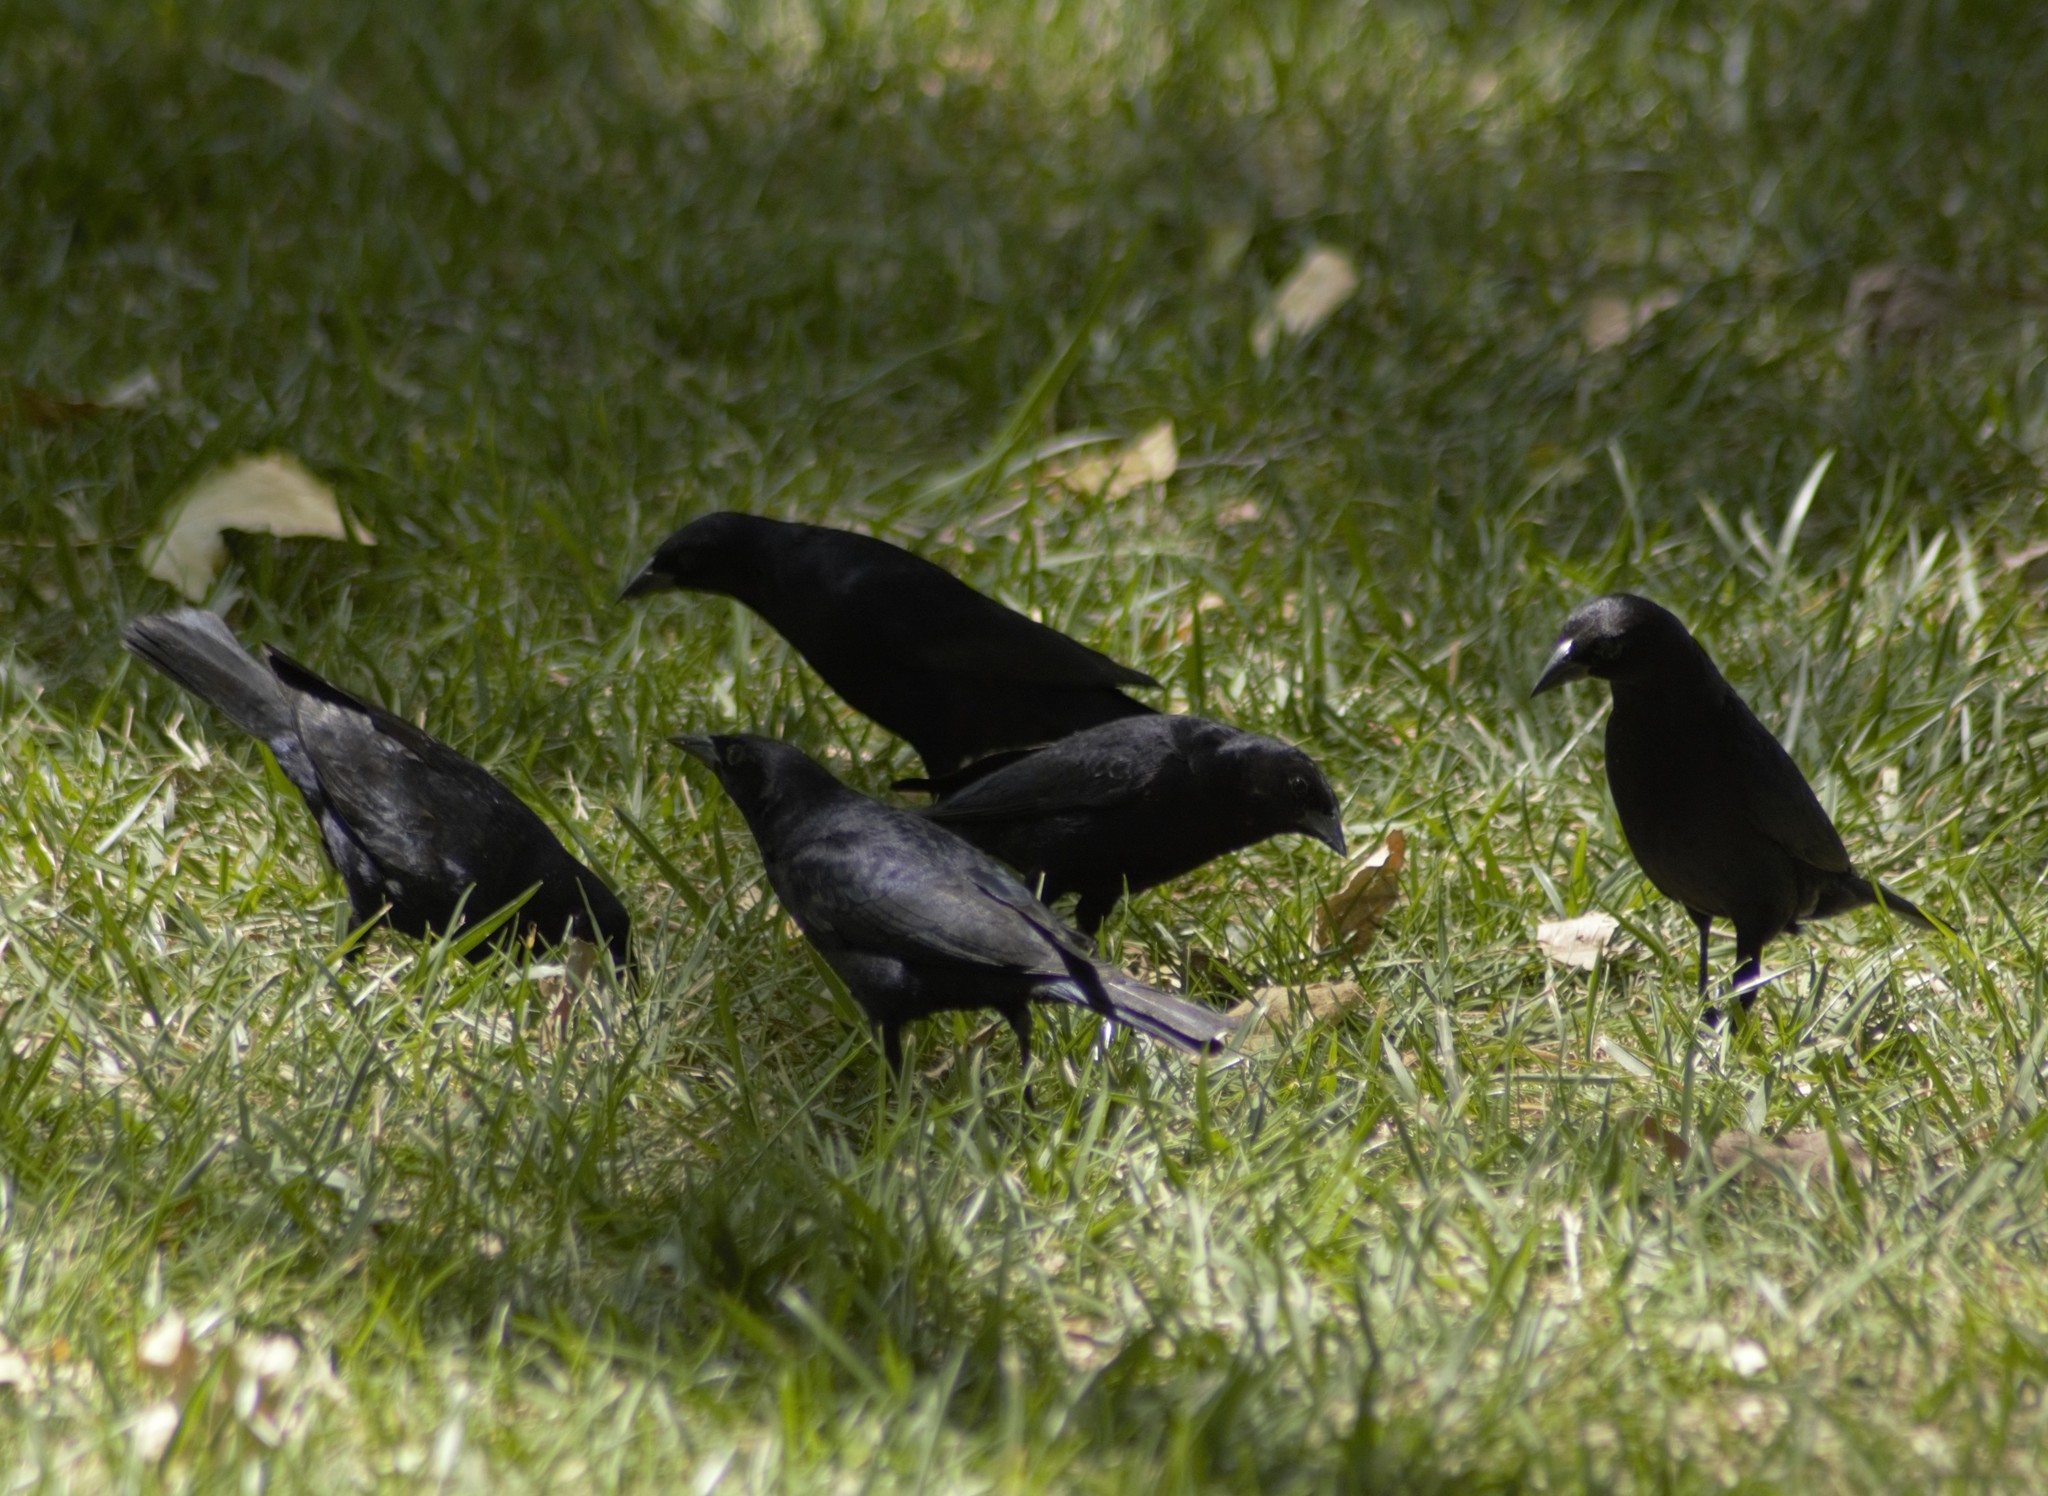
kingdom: Animalia
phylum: Chordata
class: Aves
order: Passeriformes
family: Icteridae
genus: Molothrus
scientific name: Molothrus bonariensis
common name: Shiny cowbird
